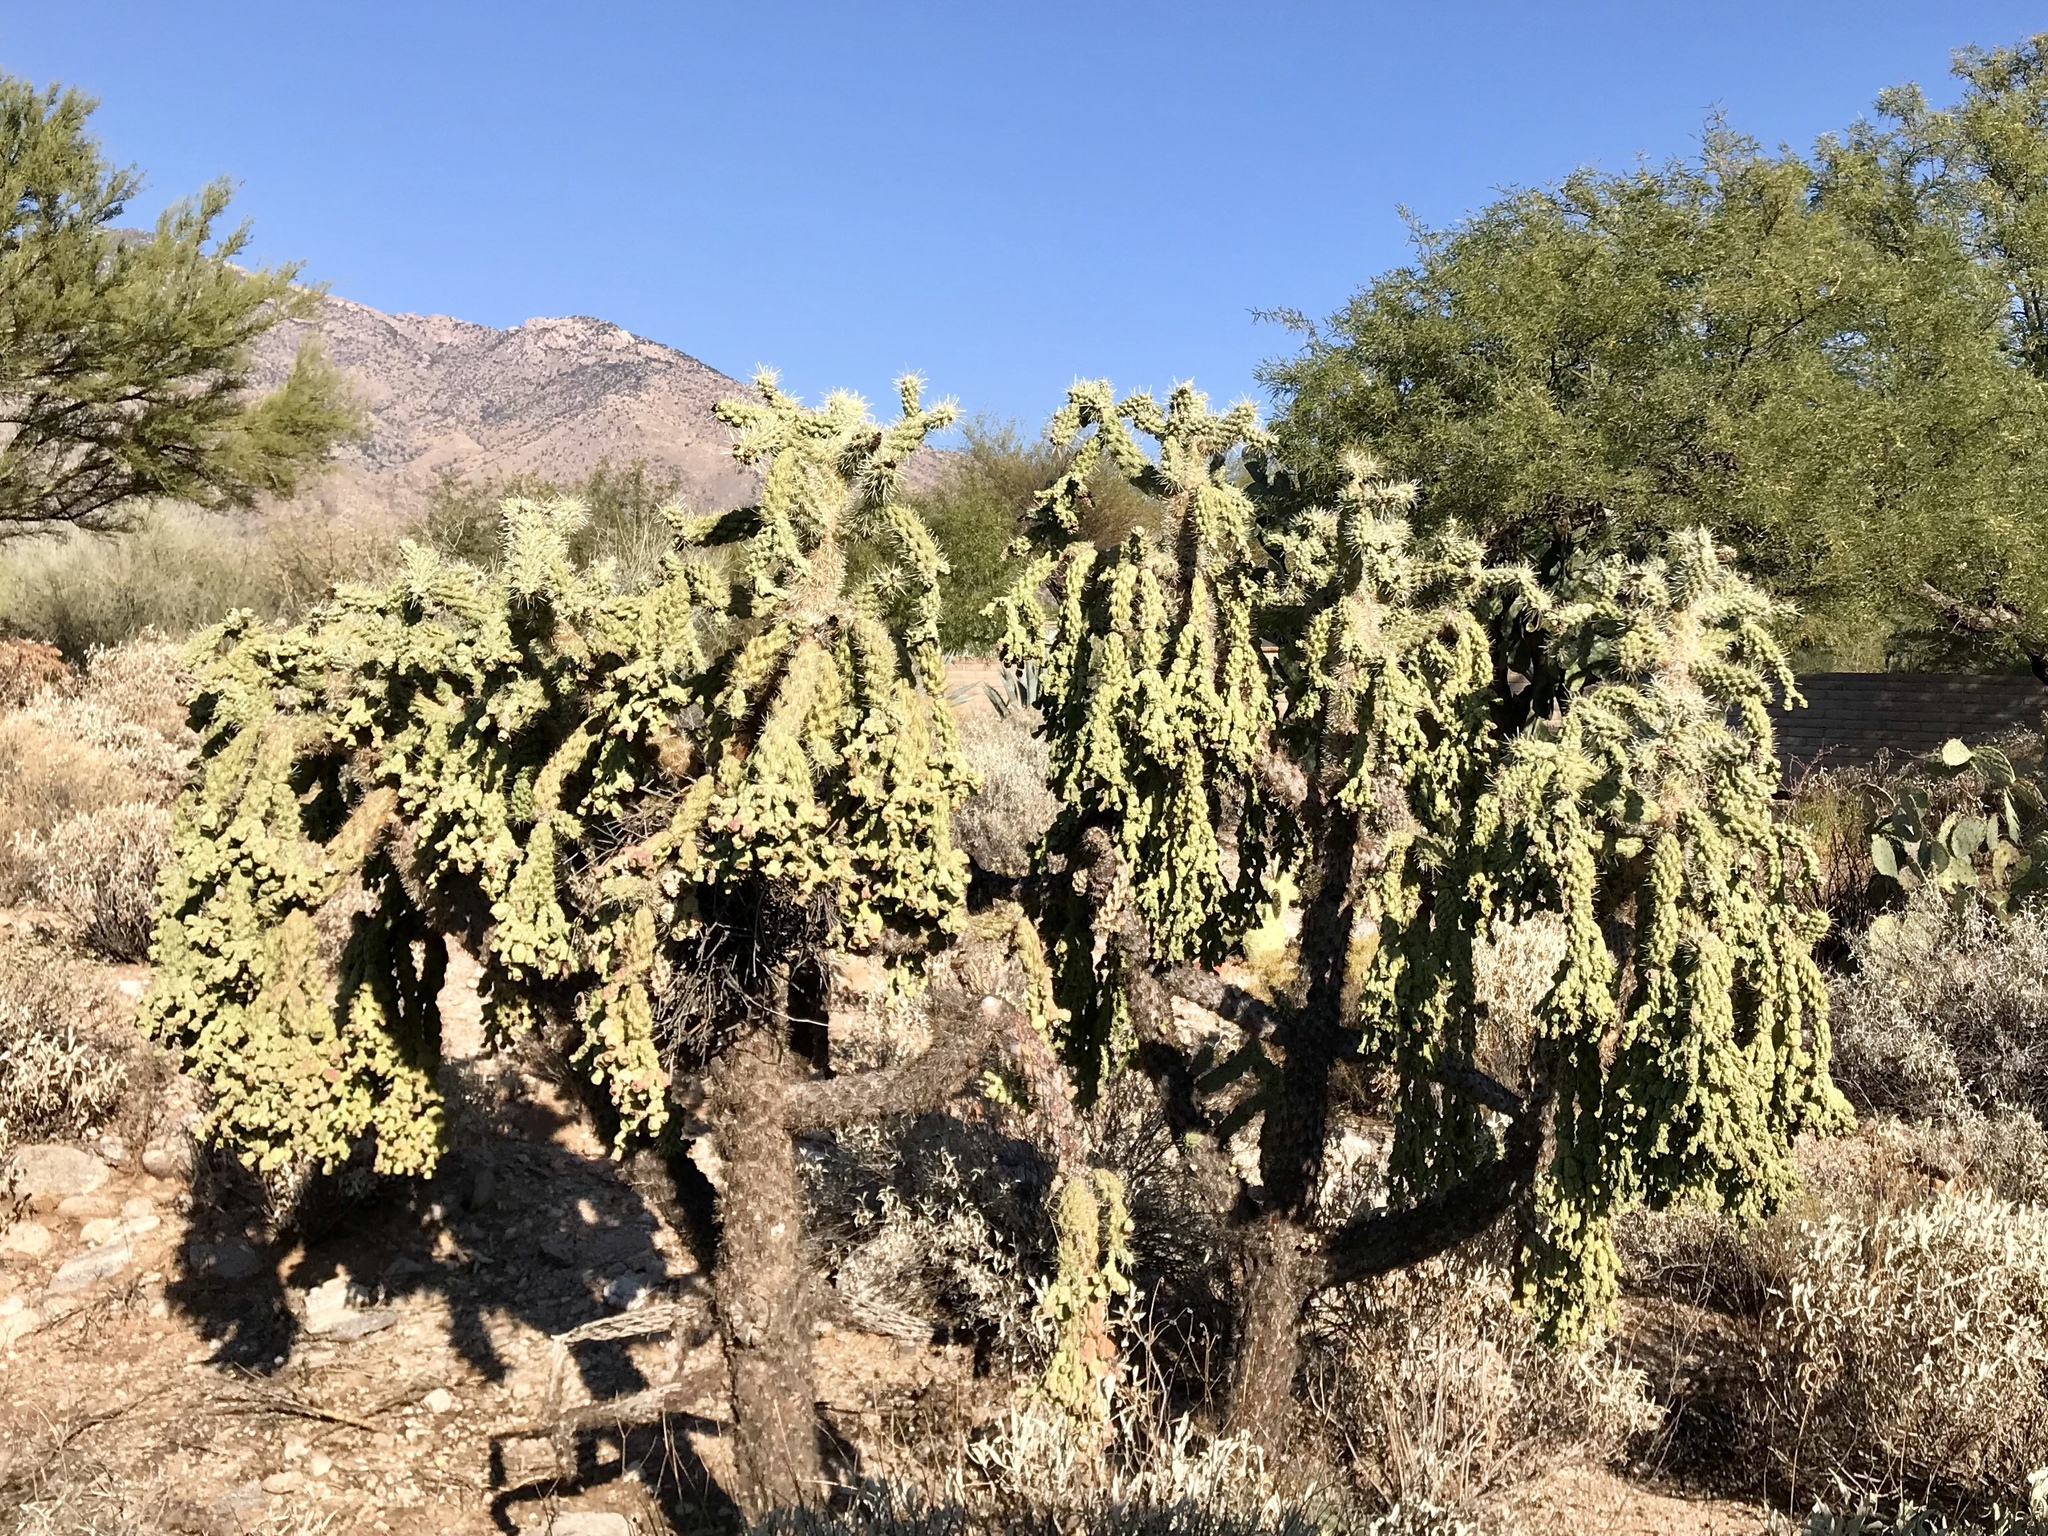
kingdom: Plantae
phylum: Tracheophyta
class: Magnoliopsida
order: Caryophyllales
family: Cactaceae
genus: Cylindropuntia
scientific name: Cylindropuntia fulgida
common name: Jumping cholla
